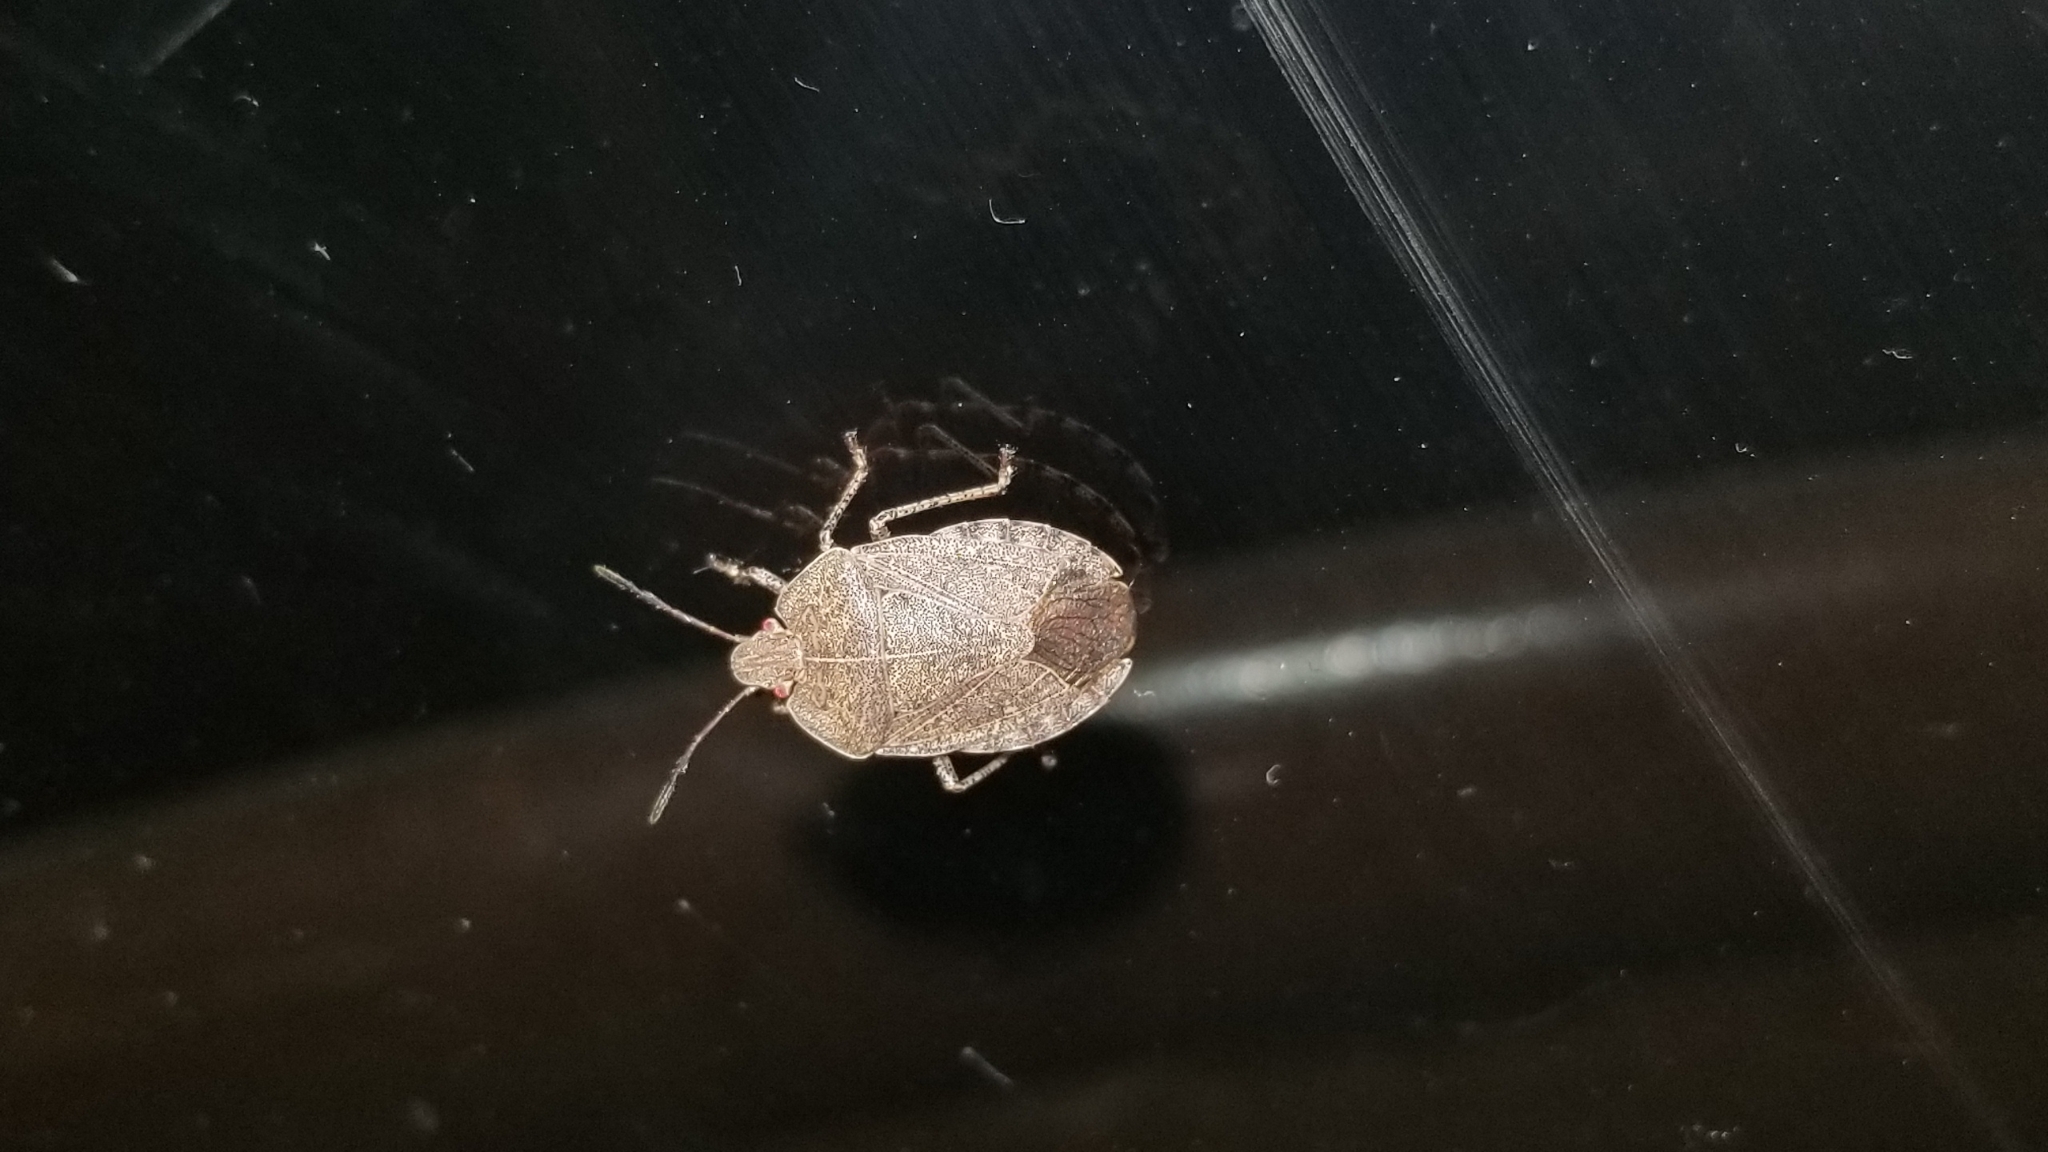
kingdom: Animalia
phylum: Arthropoda
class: Insecta
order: Hemiptera
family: Pentatomidae
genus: Menecles
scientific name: Menecles insertus
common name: Elf shoe stink bug
